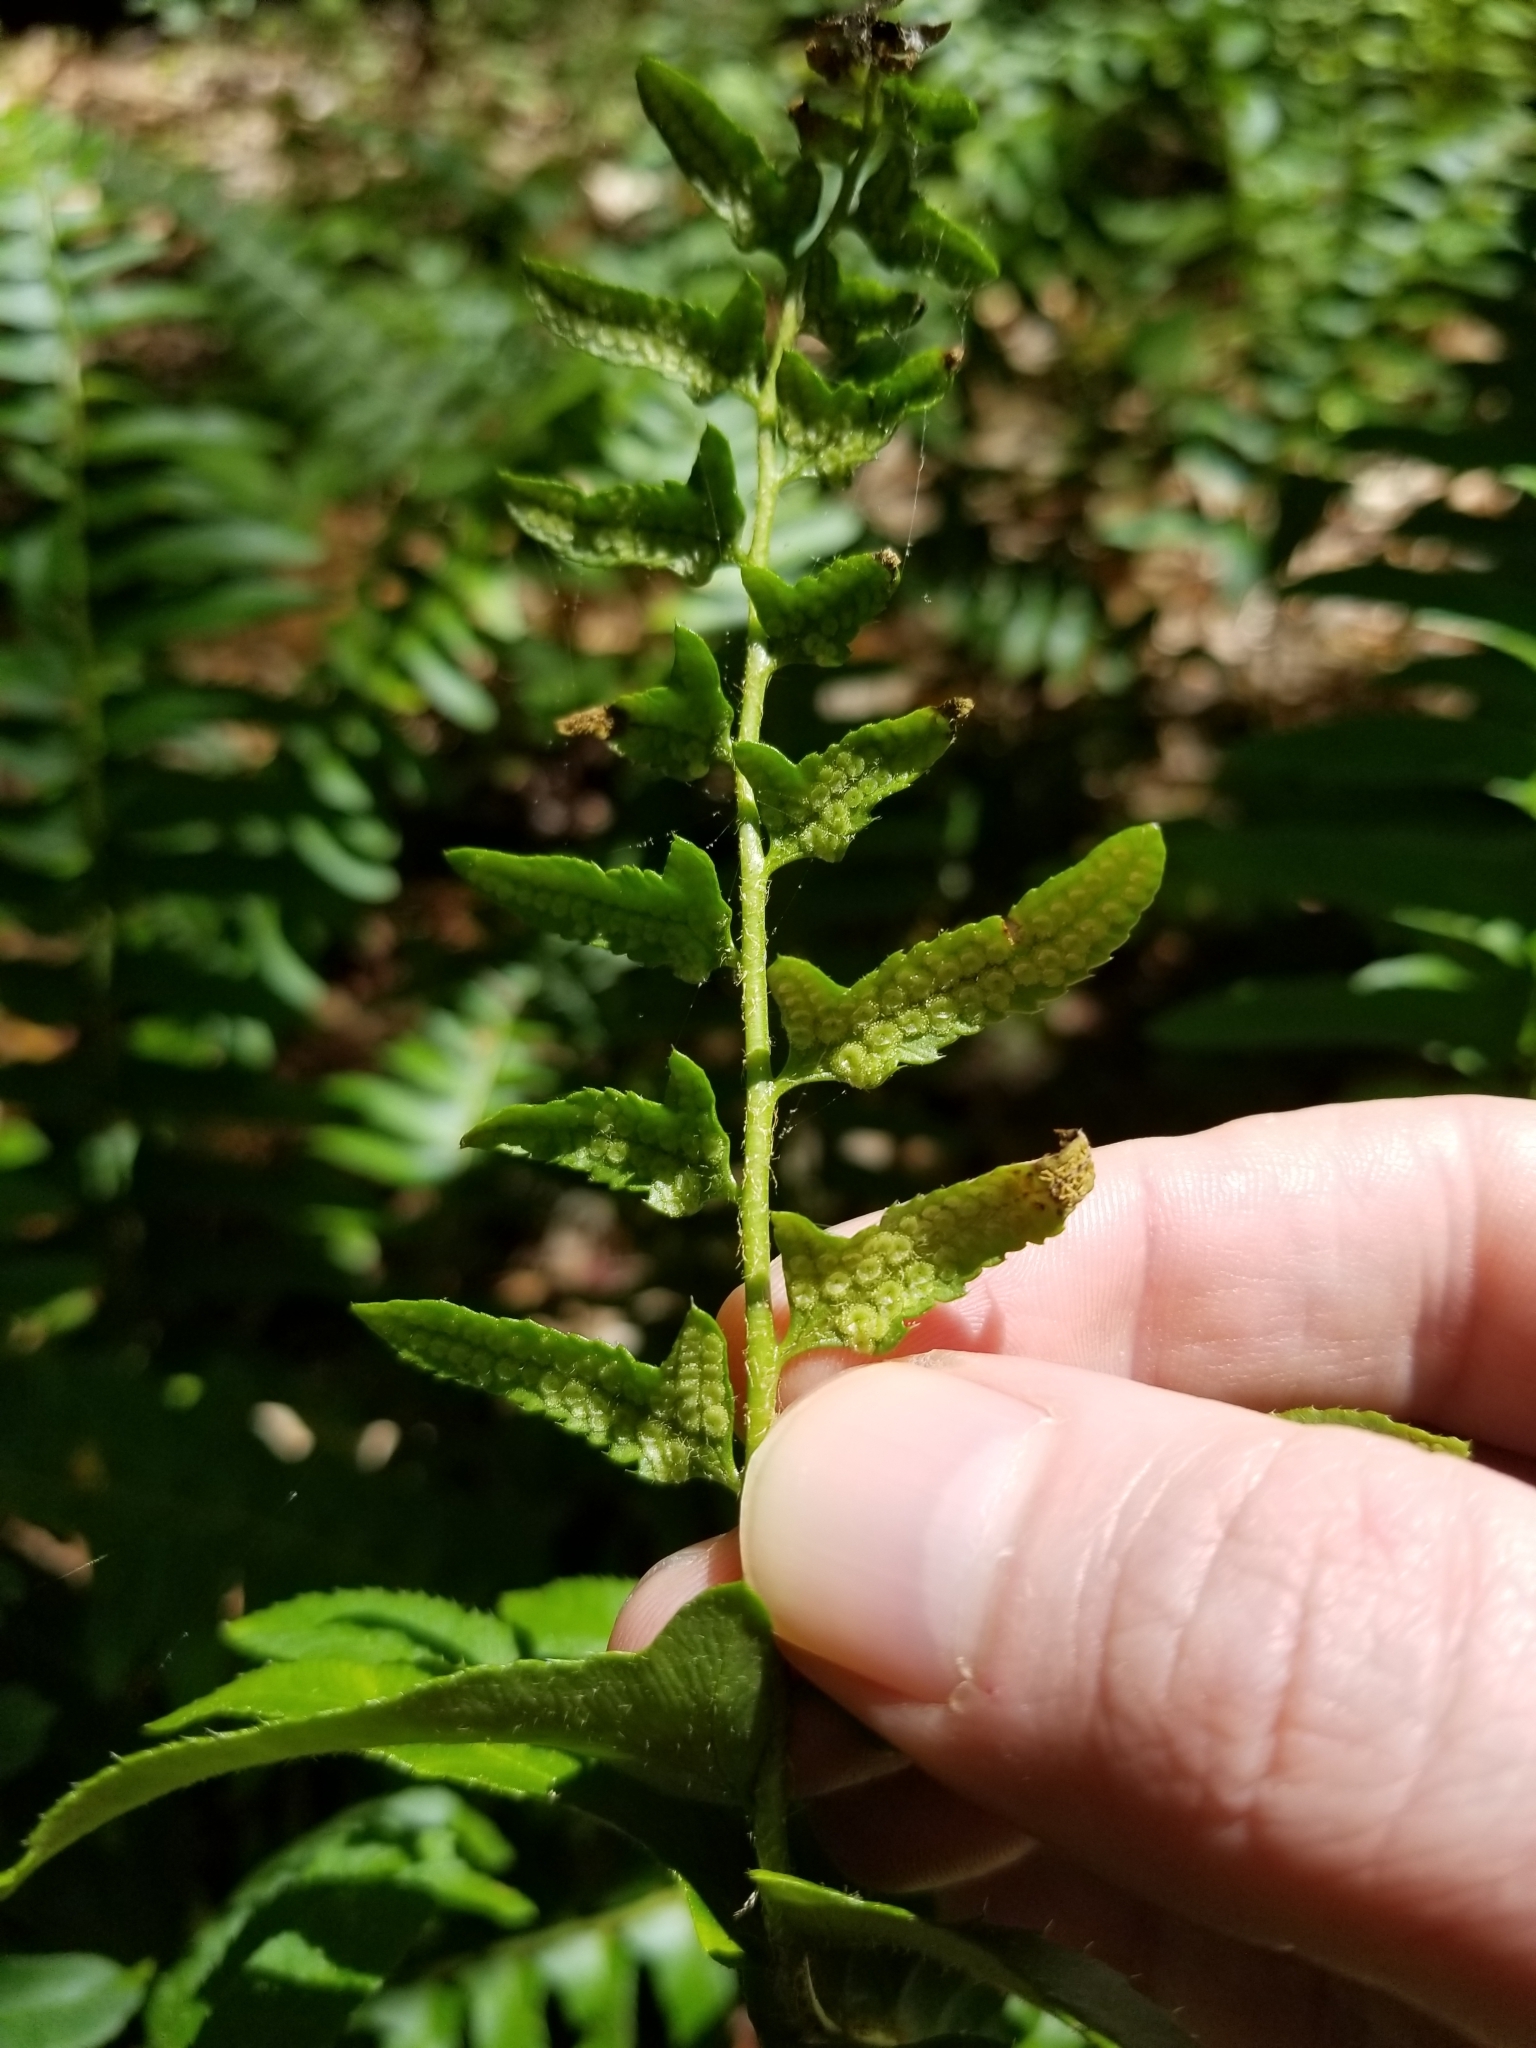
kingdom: Plantae
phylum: Tracheophyta
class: Polypodiopsida
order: Polypodiales
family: Dryopteridaceae
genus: Polystichum
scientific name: Polystichum acrostichoides
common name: Christmas fern
